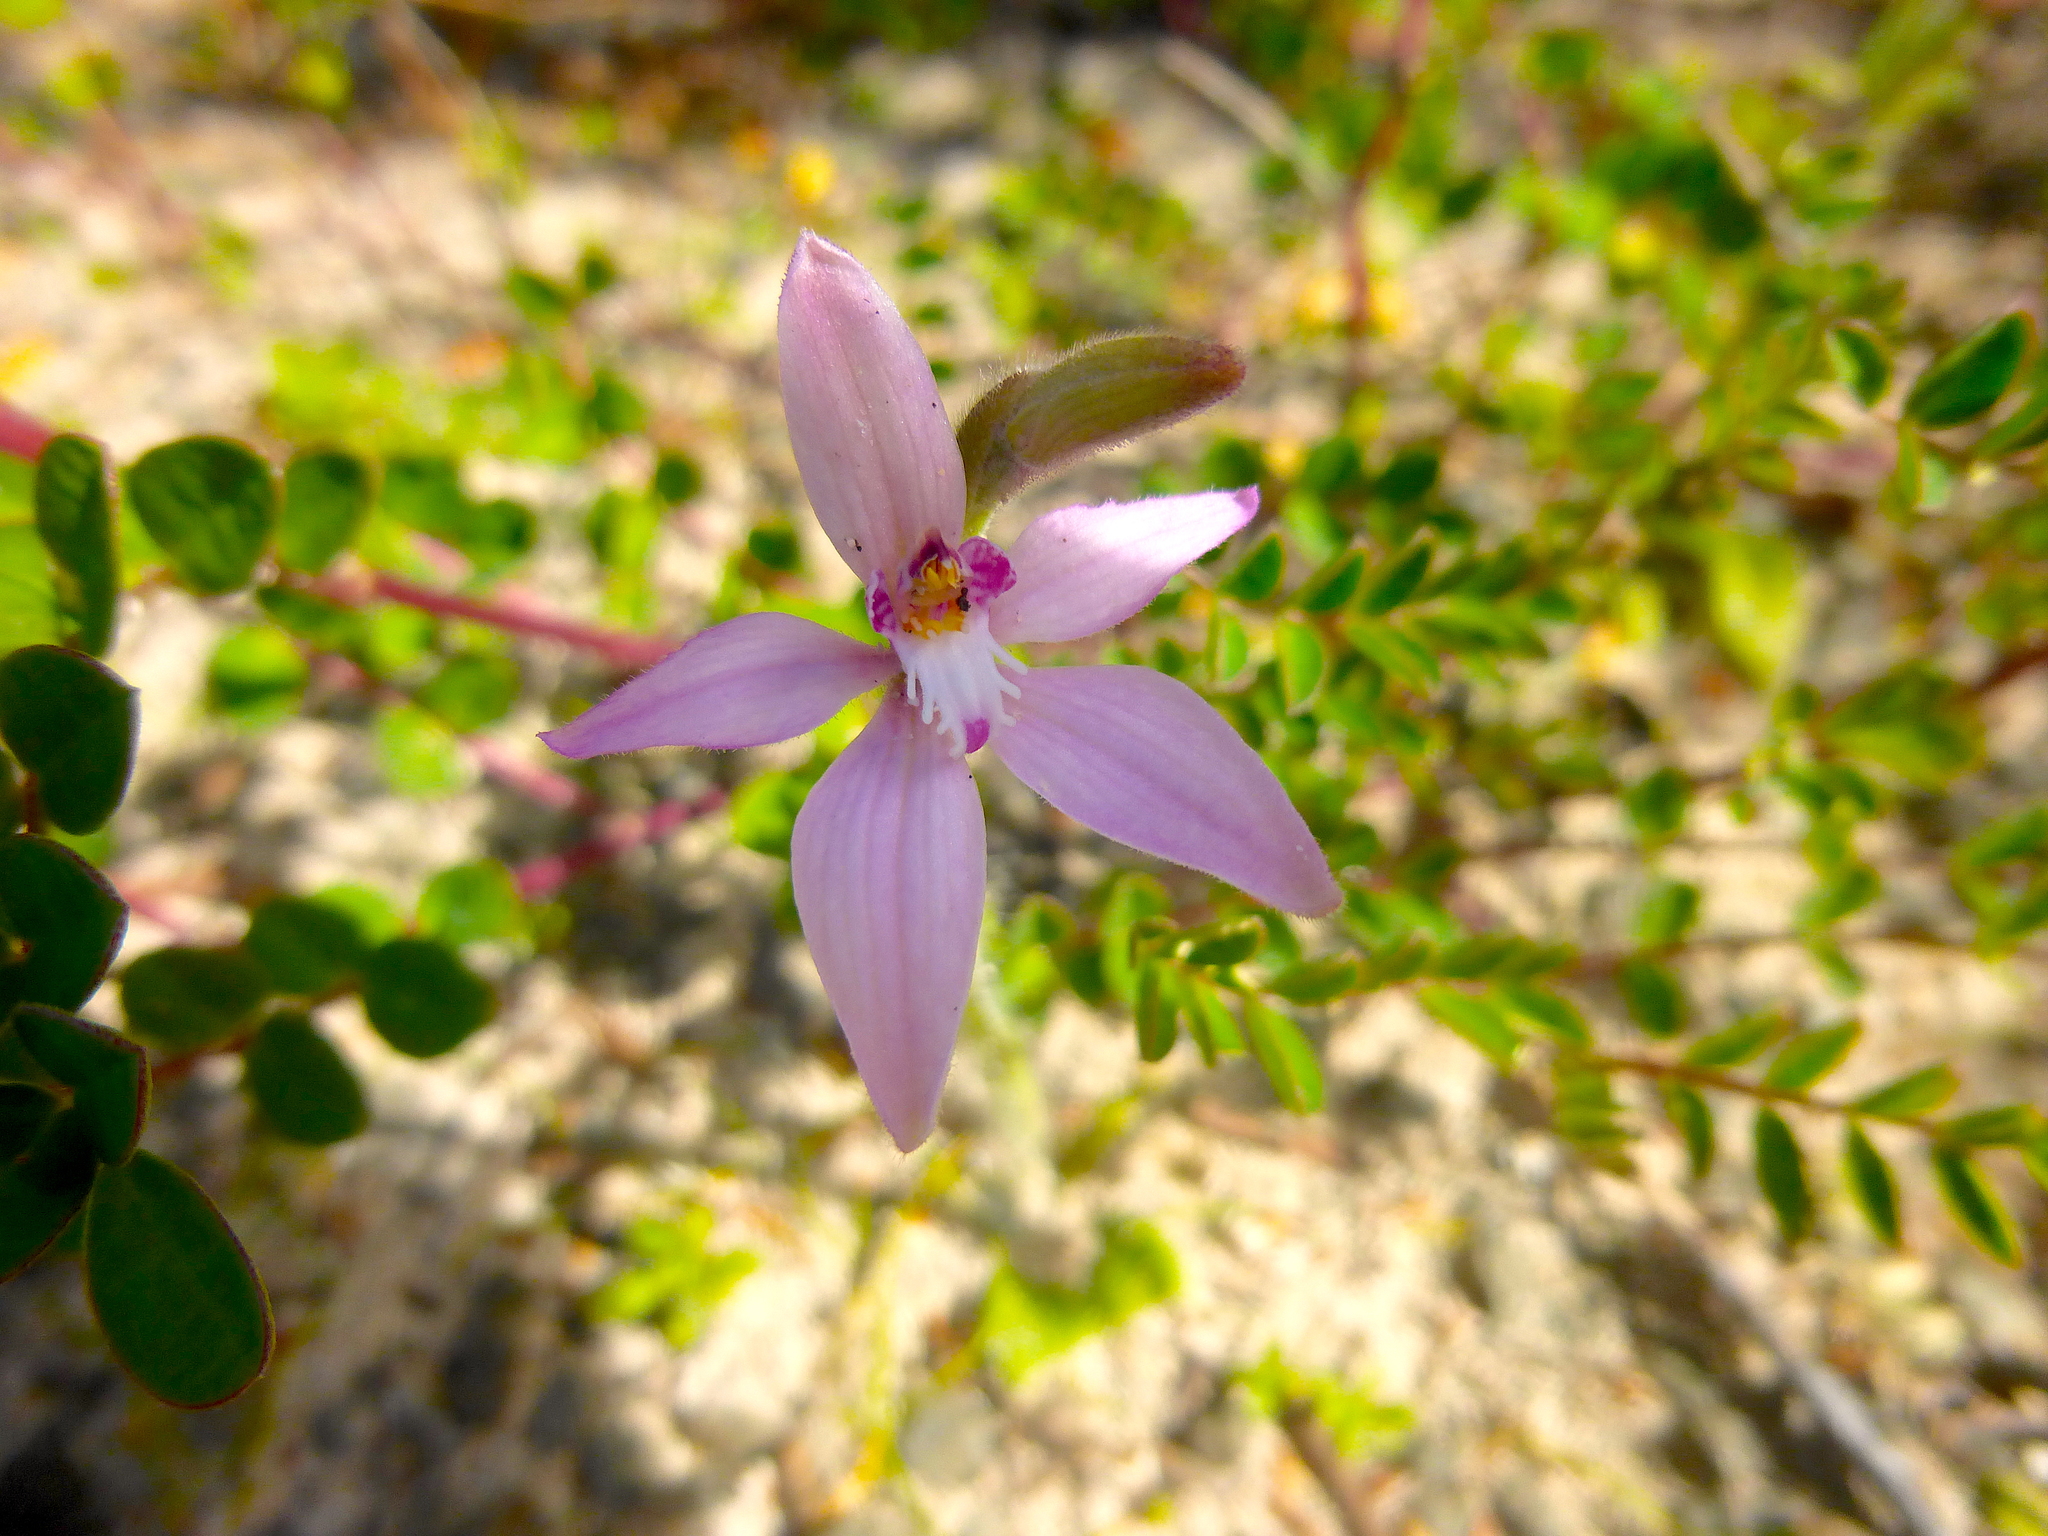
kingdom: Plantae
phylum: Tracheophyta
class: Liliopsida
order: Asparagales
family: Orchidaceae
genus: Caladenia
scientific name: Caladenia latifolia
